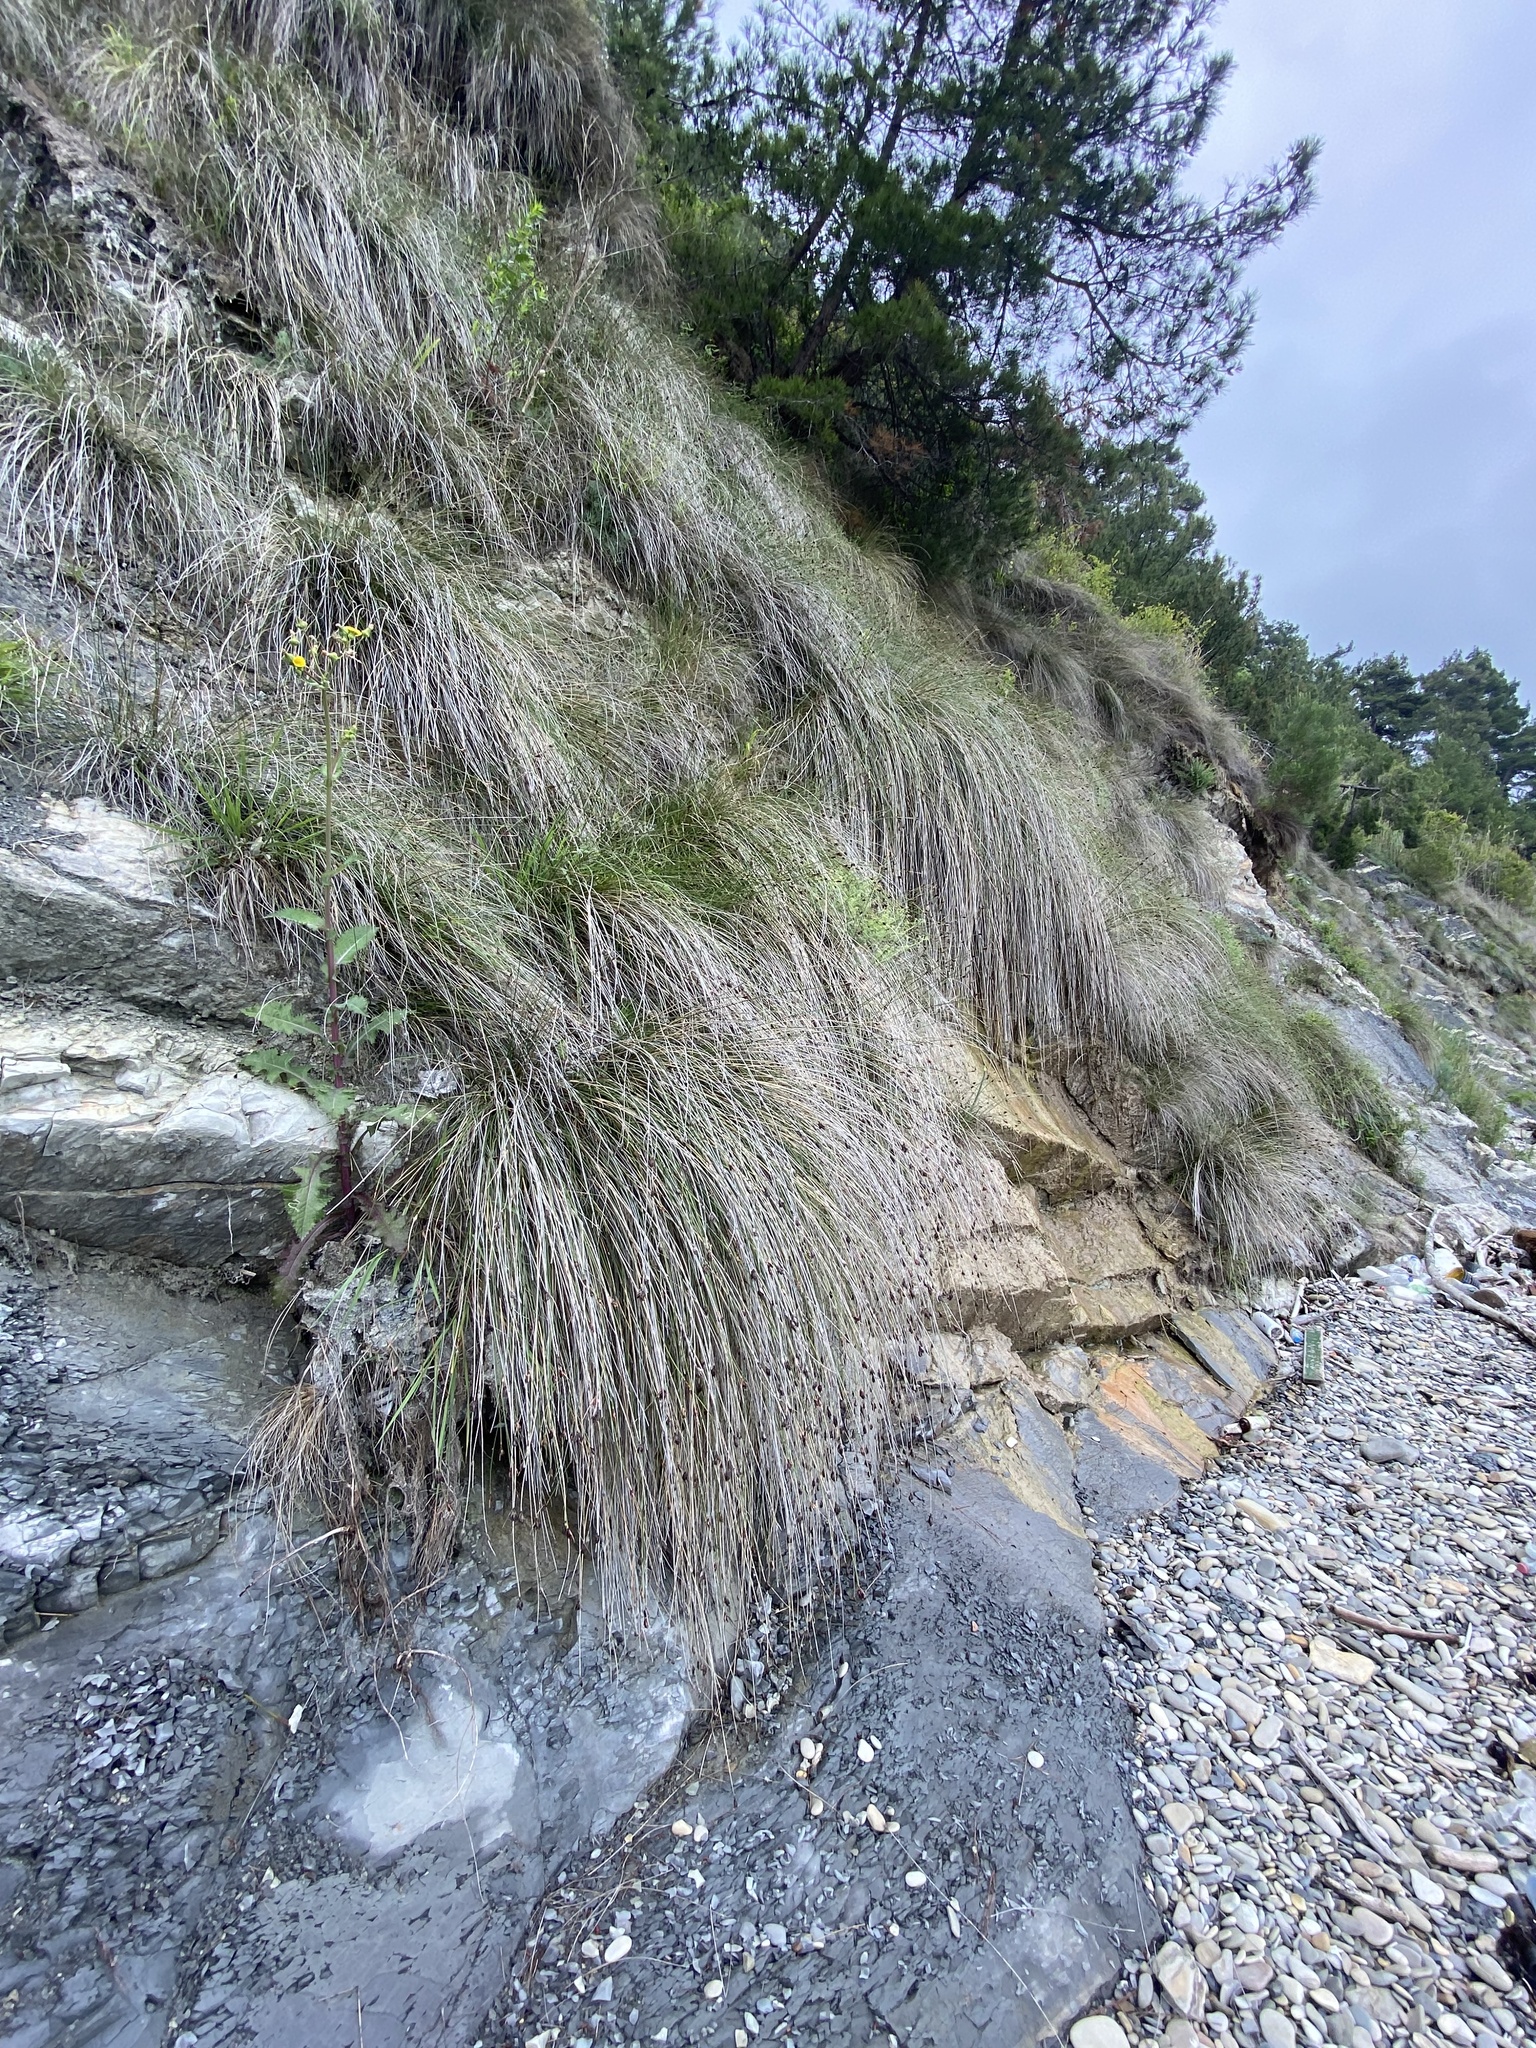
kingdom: Plantae
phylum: Tracheophyta
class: Liliopsida
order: Poales
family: Cyperaceae
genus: Schoenus
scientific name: Schoenus nigricans
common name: Black bog-rush
